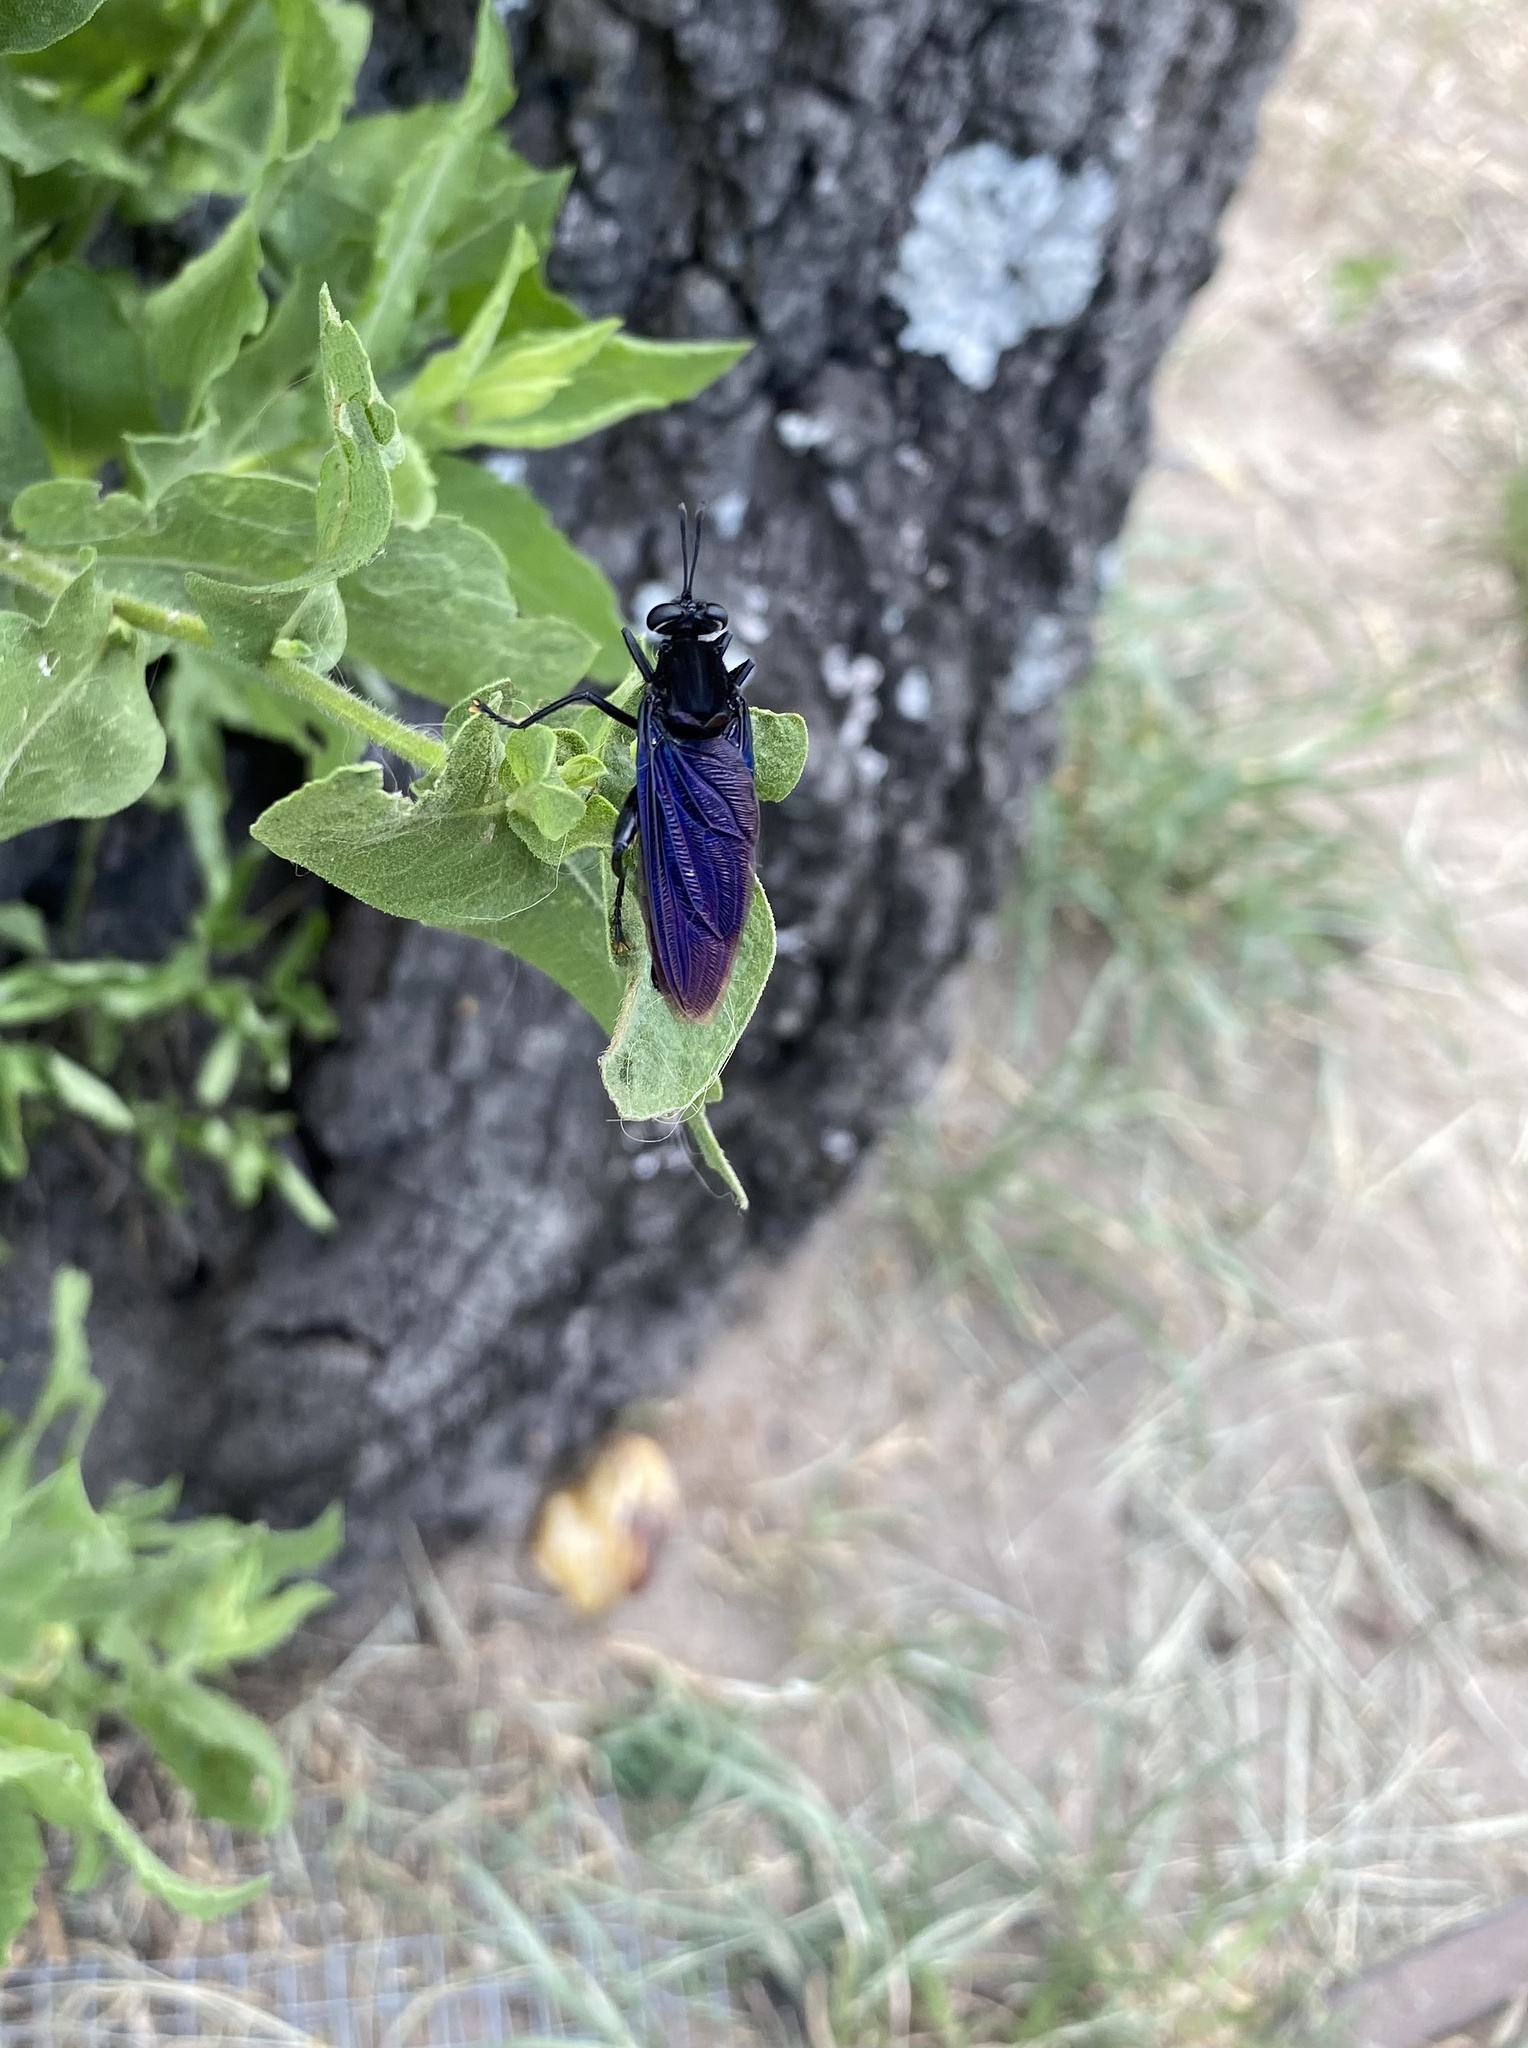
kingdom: Animalia
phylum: Arthropoda
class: Insecta
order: Diptera
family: Mydidae
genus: Mydas
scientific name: Mydas clavatus
